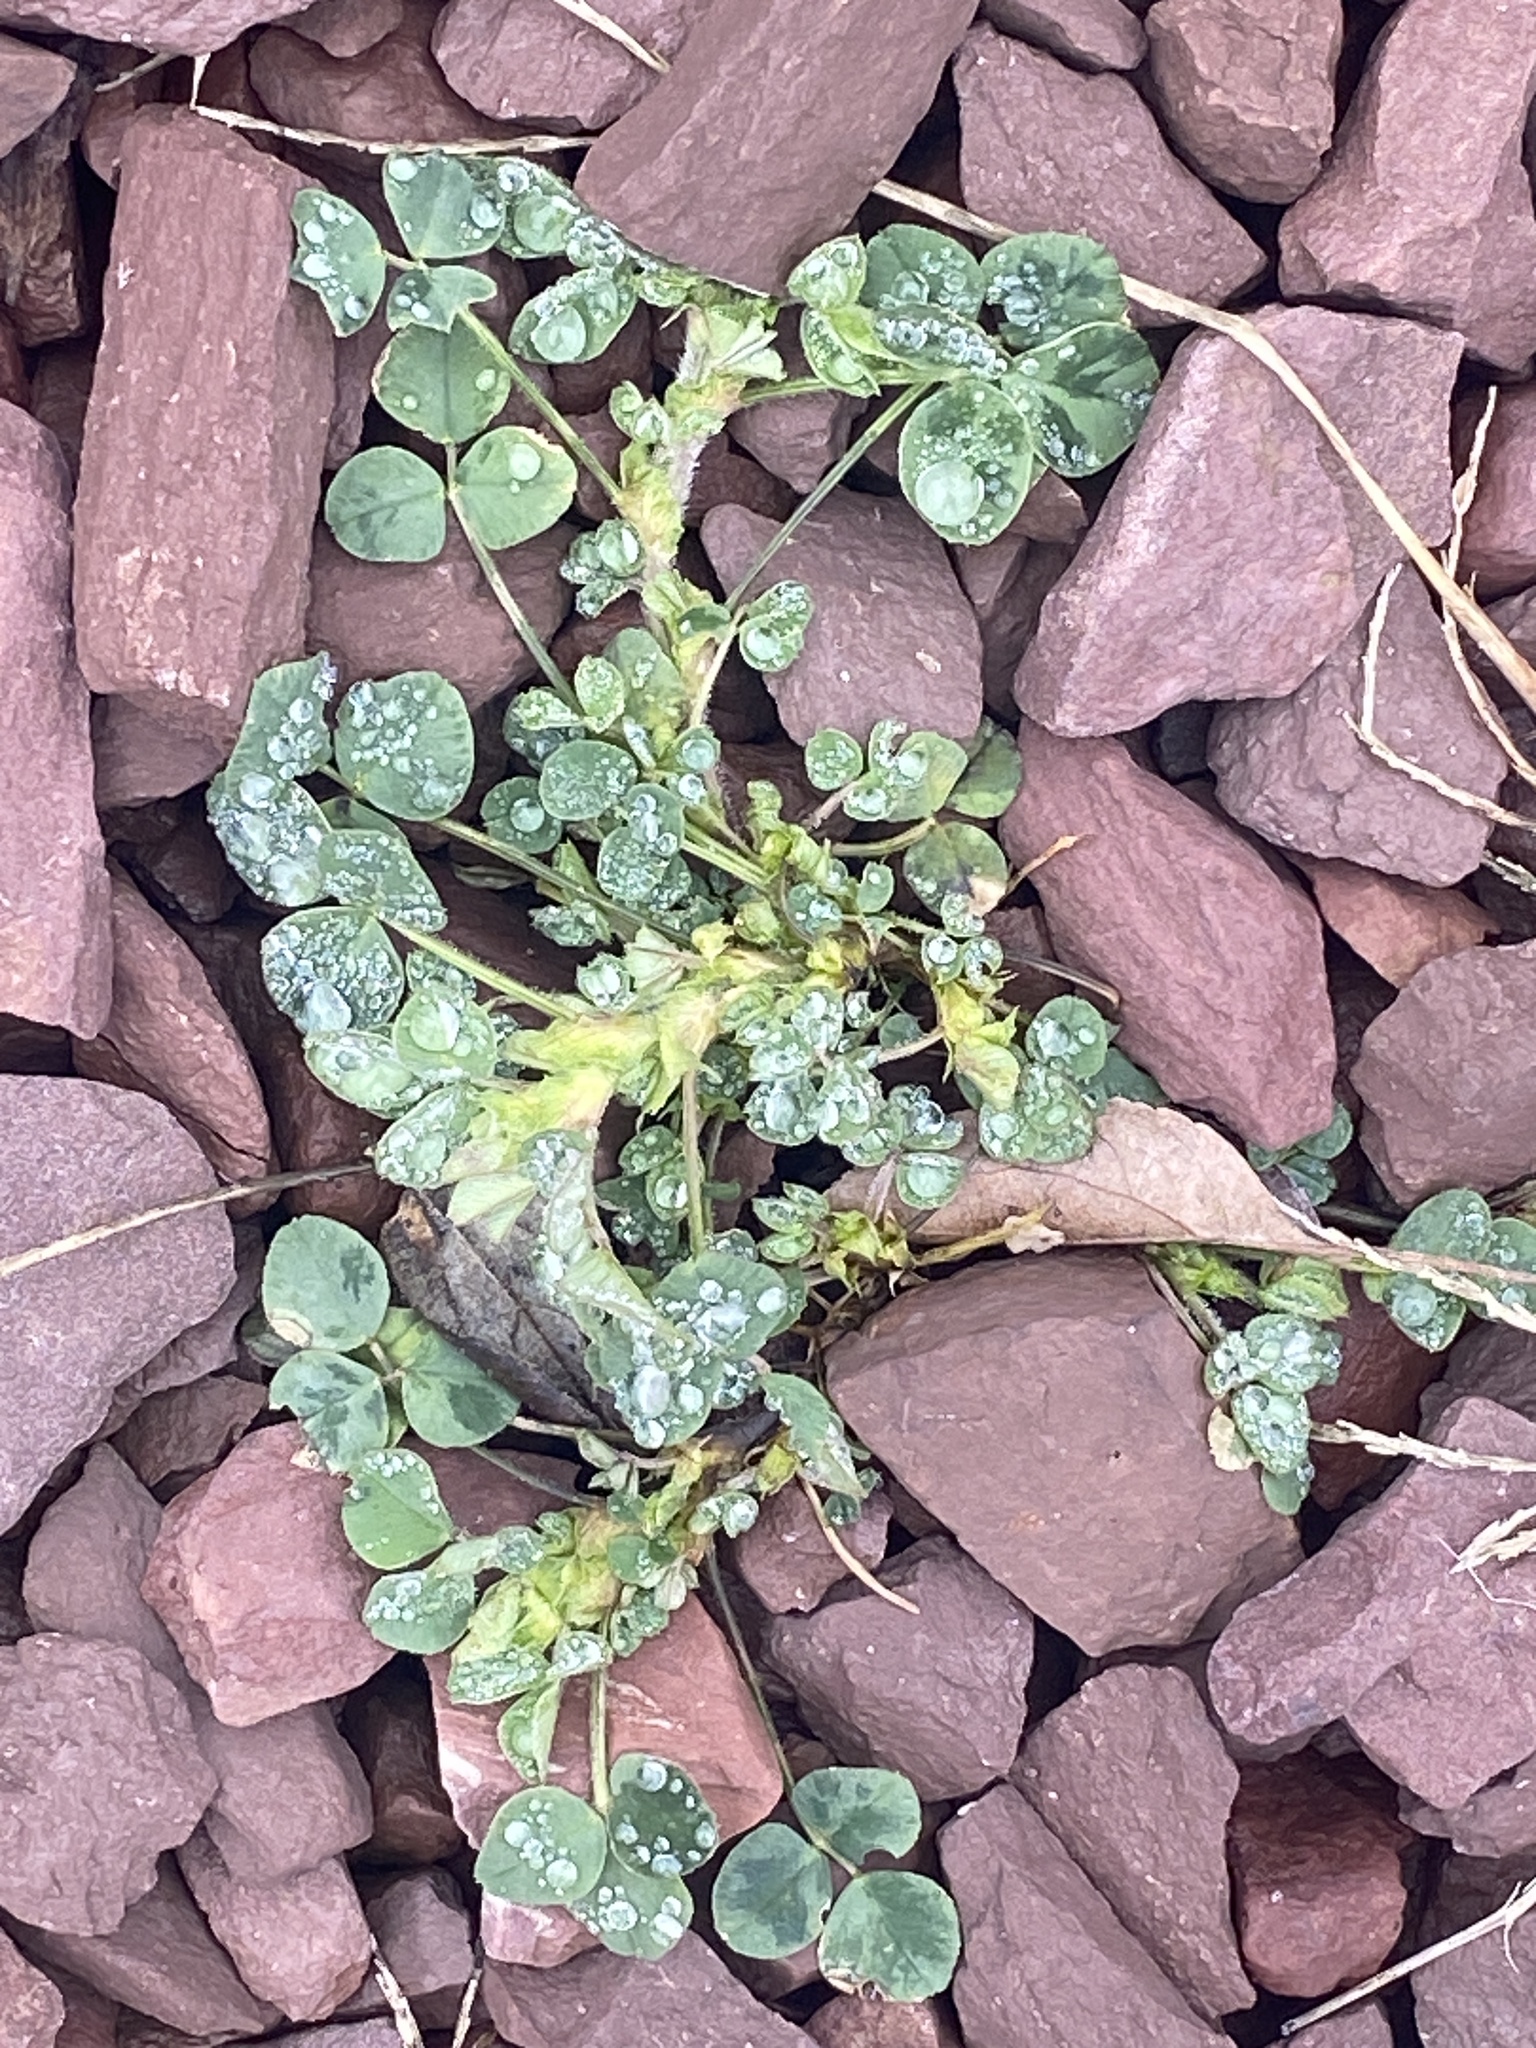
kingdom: Plantae
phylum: Tracheophyta
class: Magnoliopsida
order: Fabales
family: Fabaceae
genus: Medicago
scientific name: Medicago lupulina
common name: Black medick
